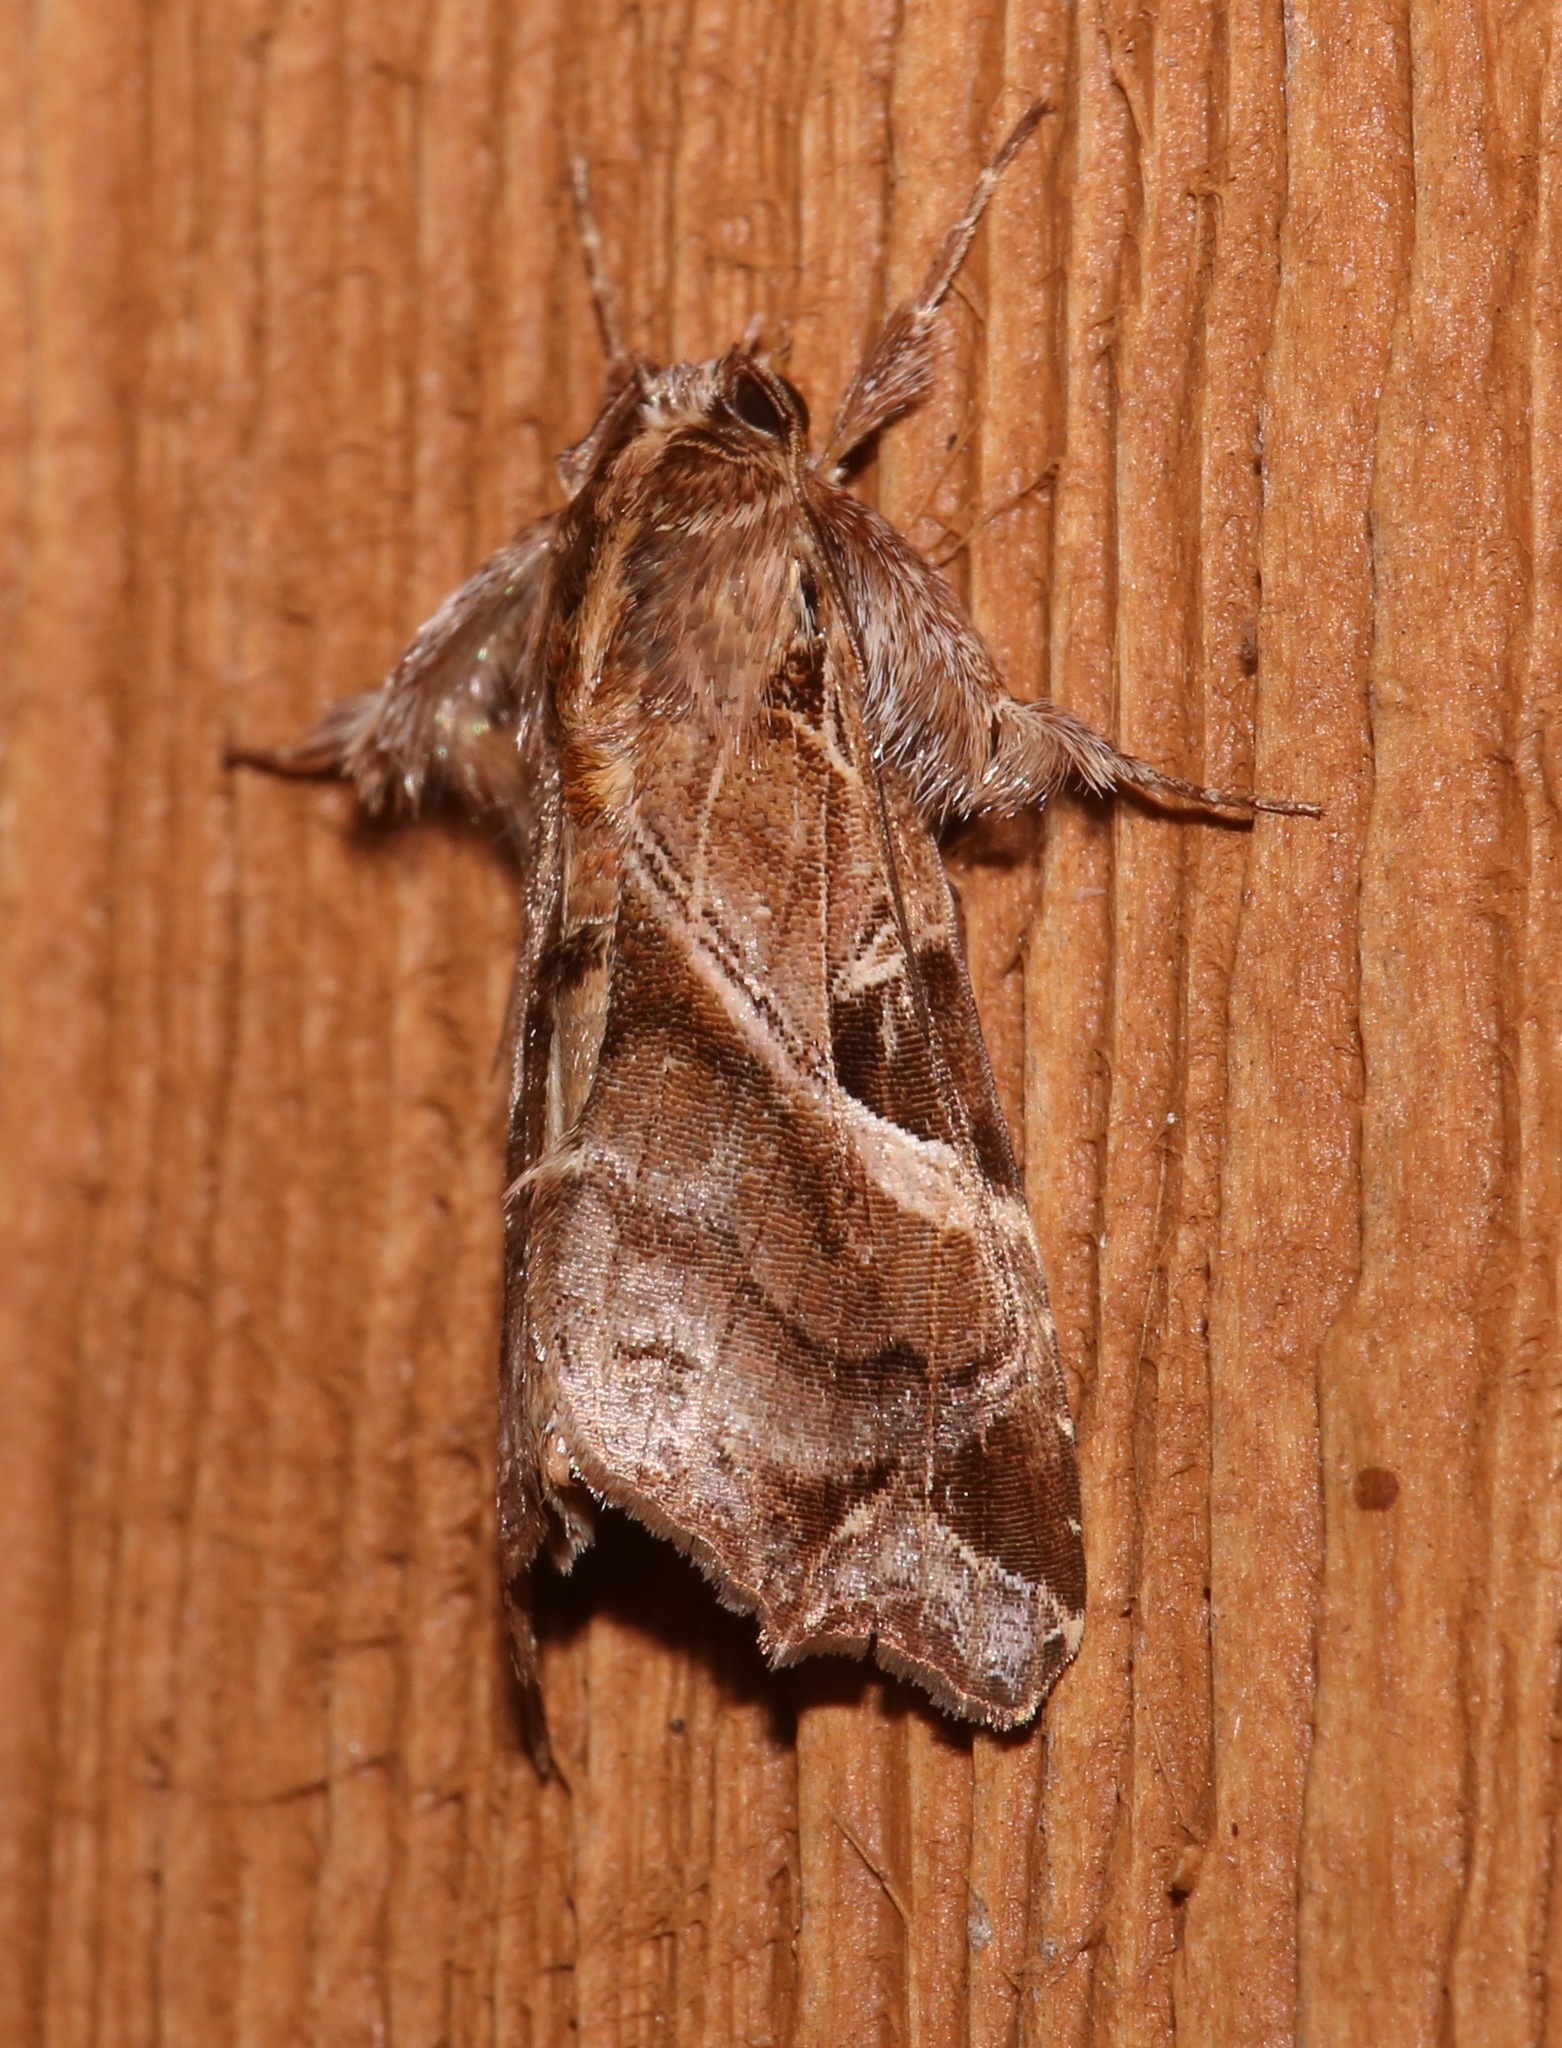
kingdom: Animalia
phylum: Arthropoda
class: Insecta
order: Lepidoptera
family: Noctuidae
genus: Callopistria
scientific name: Callopistria floridensis
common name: Florida fern moth
